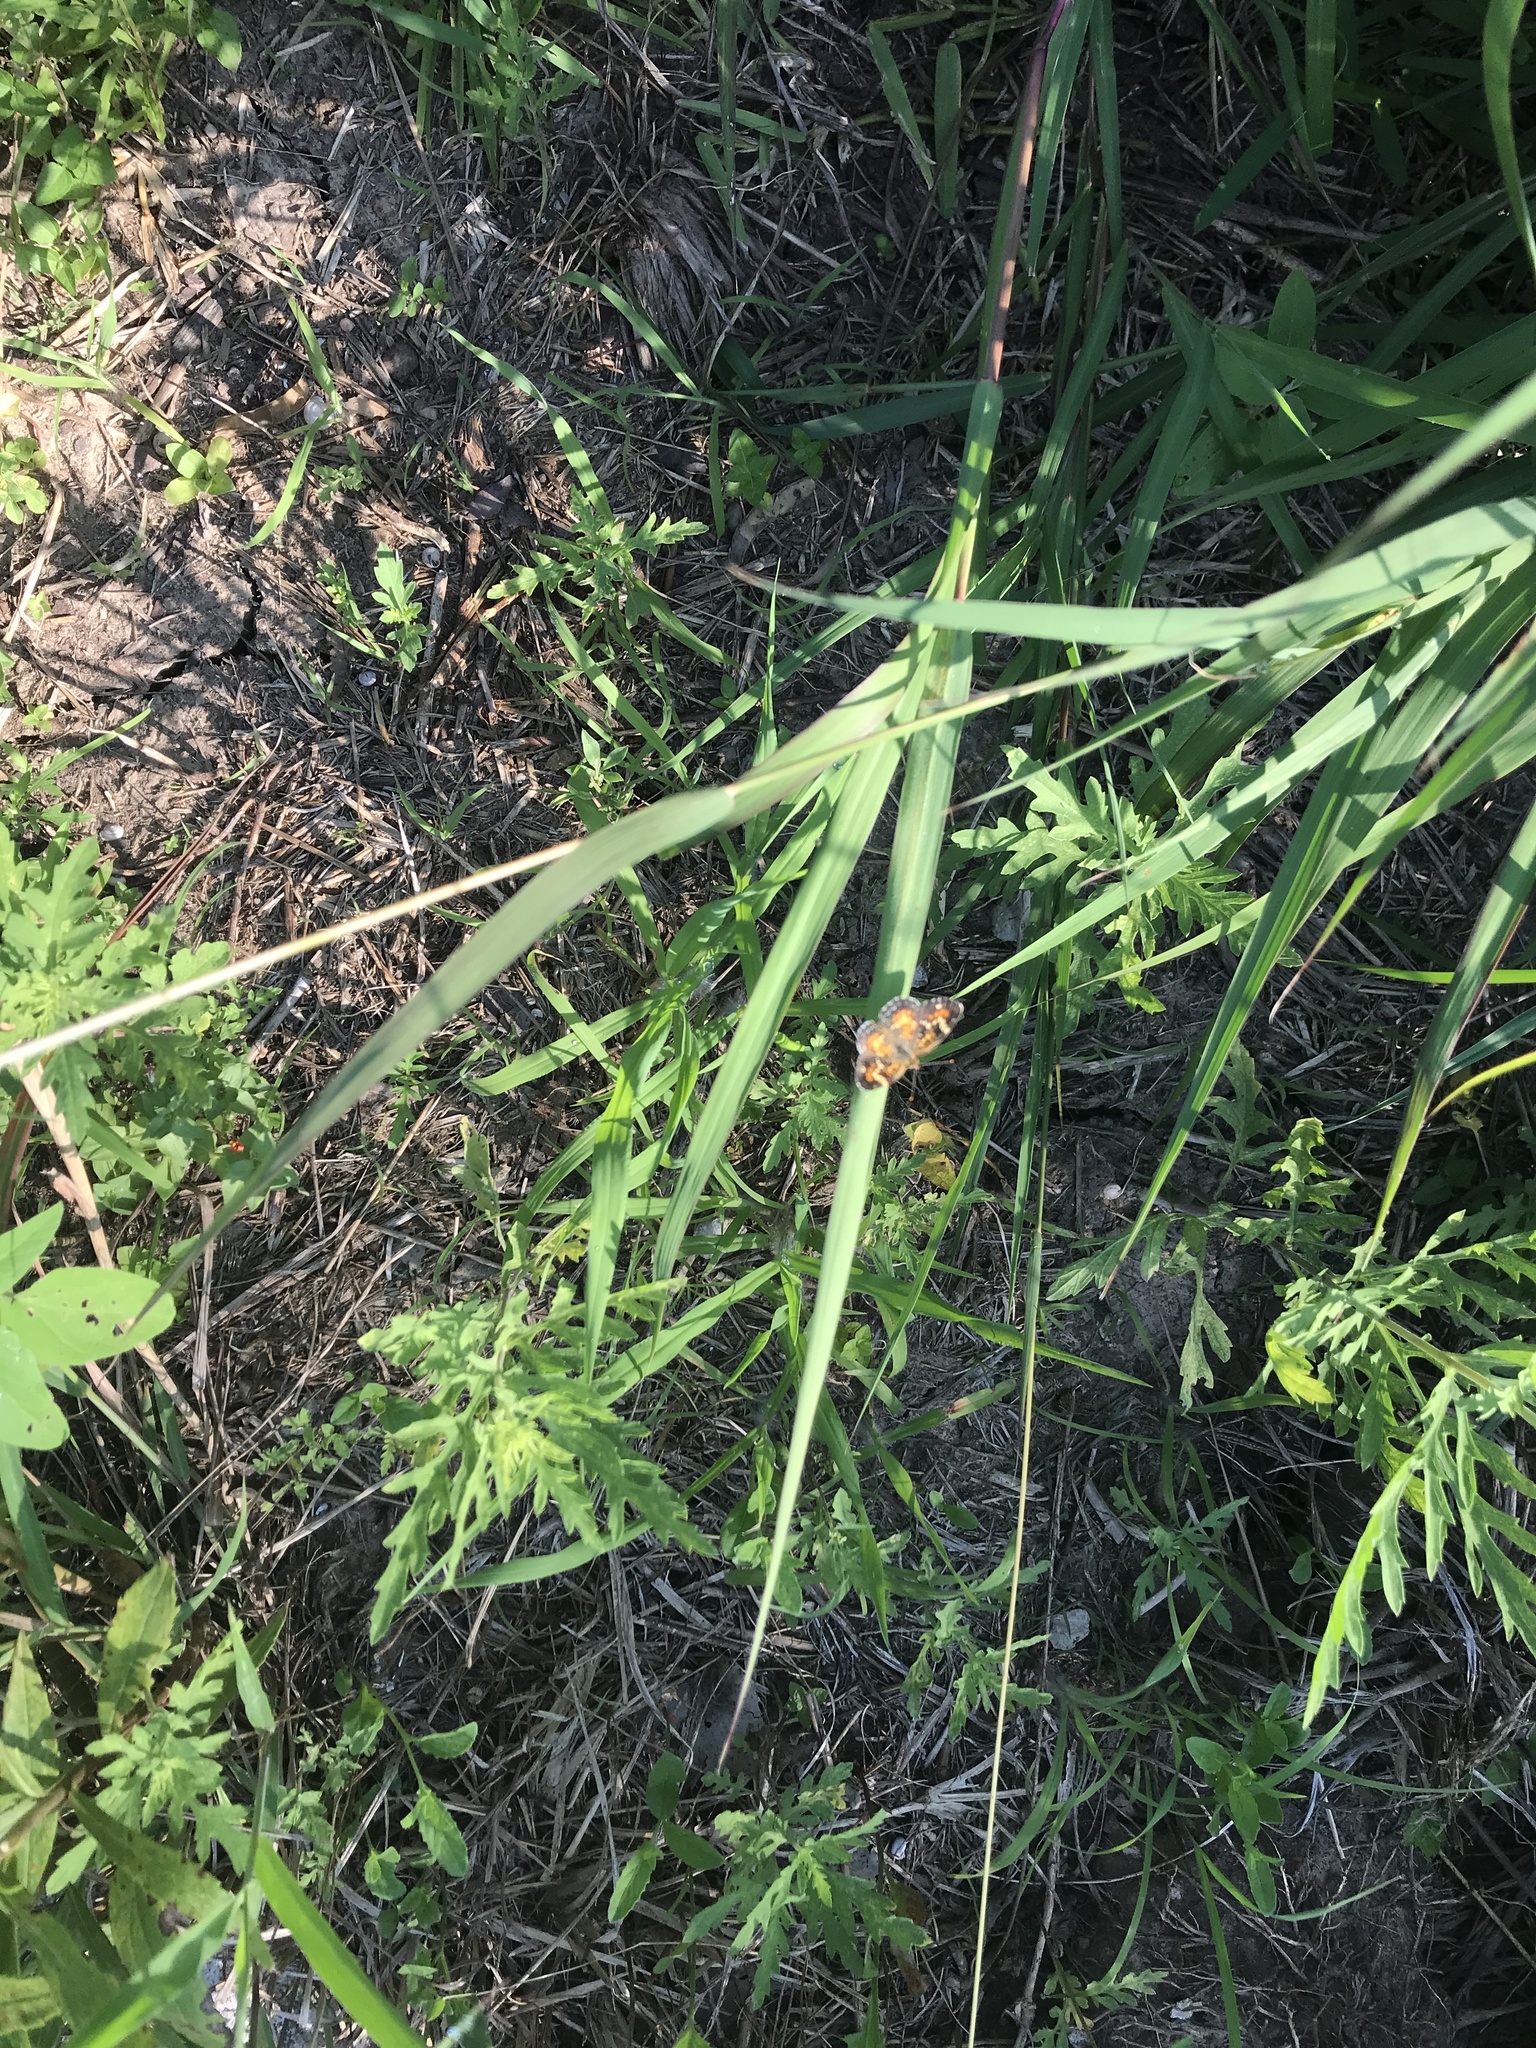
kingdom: Animalia
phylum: Arthropoda
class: Insecta
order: Lepidoptera
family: Nymphalidae
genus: Phyciodes
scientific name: Phyciodes phaon
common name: Phaon crescent
